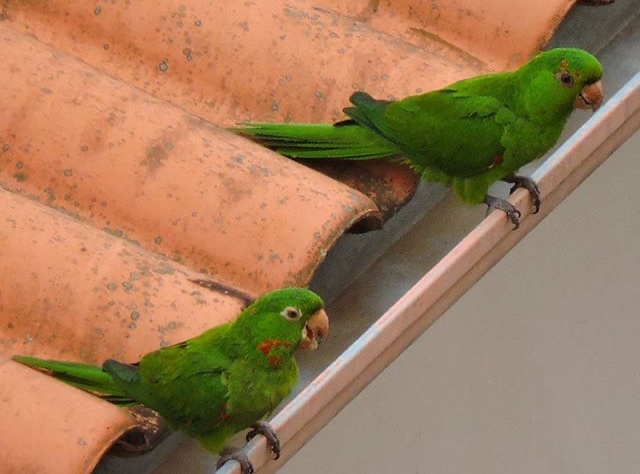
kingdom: Animalia
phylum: Chordata
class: Aves
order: Psittaciformes
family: Psittacidae
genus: Aratinga
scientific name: Aratinga leucophthalma
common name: White-eyed parakeet
